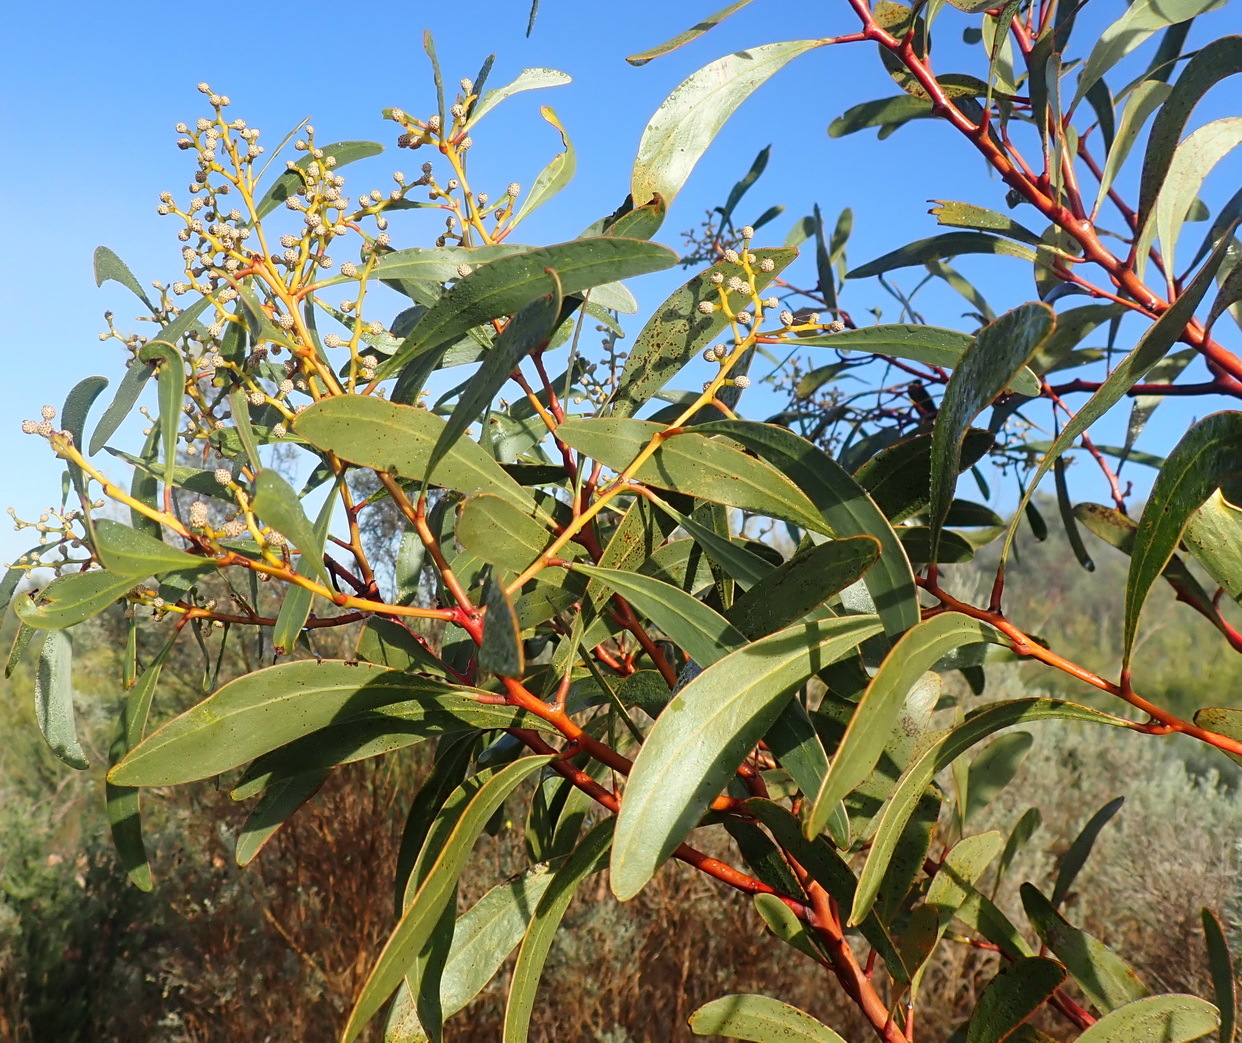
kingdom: Plantae
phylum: Tracheophyta
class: Magnoliopsida
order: Fabales
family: Fabaceae
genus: Acacia
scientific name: Acacia pycnantha
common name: Golden wattle
